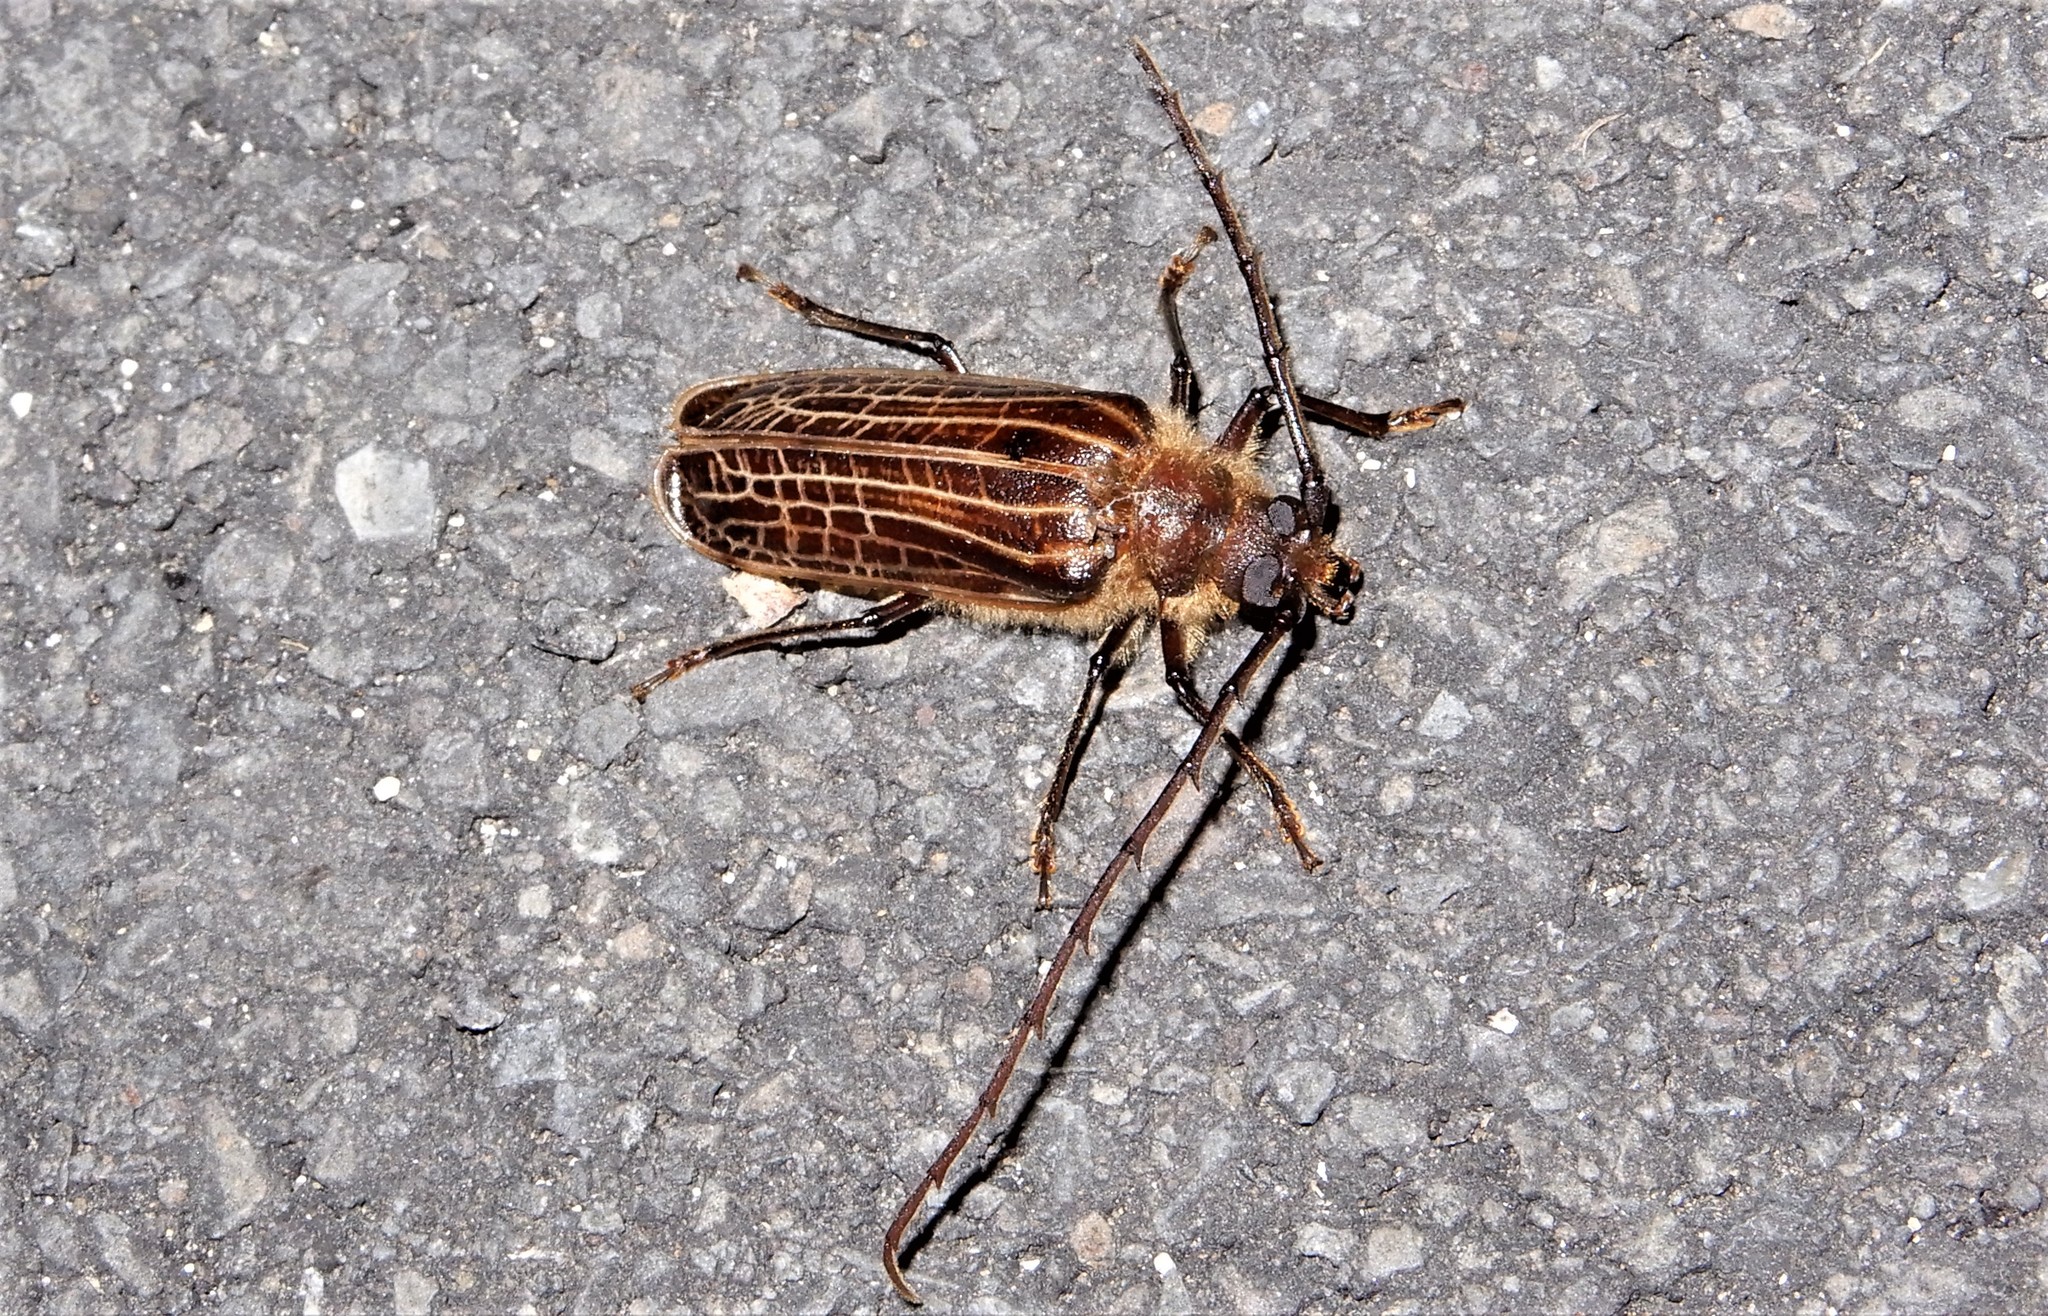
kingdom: Animalia
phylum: Arthropoda
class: Insecta
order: Coleoptera
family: Cerambycidae
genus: Prionoplus
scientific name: Prionoplus reticularis
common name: Huhu beetle
